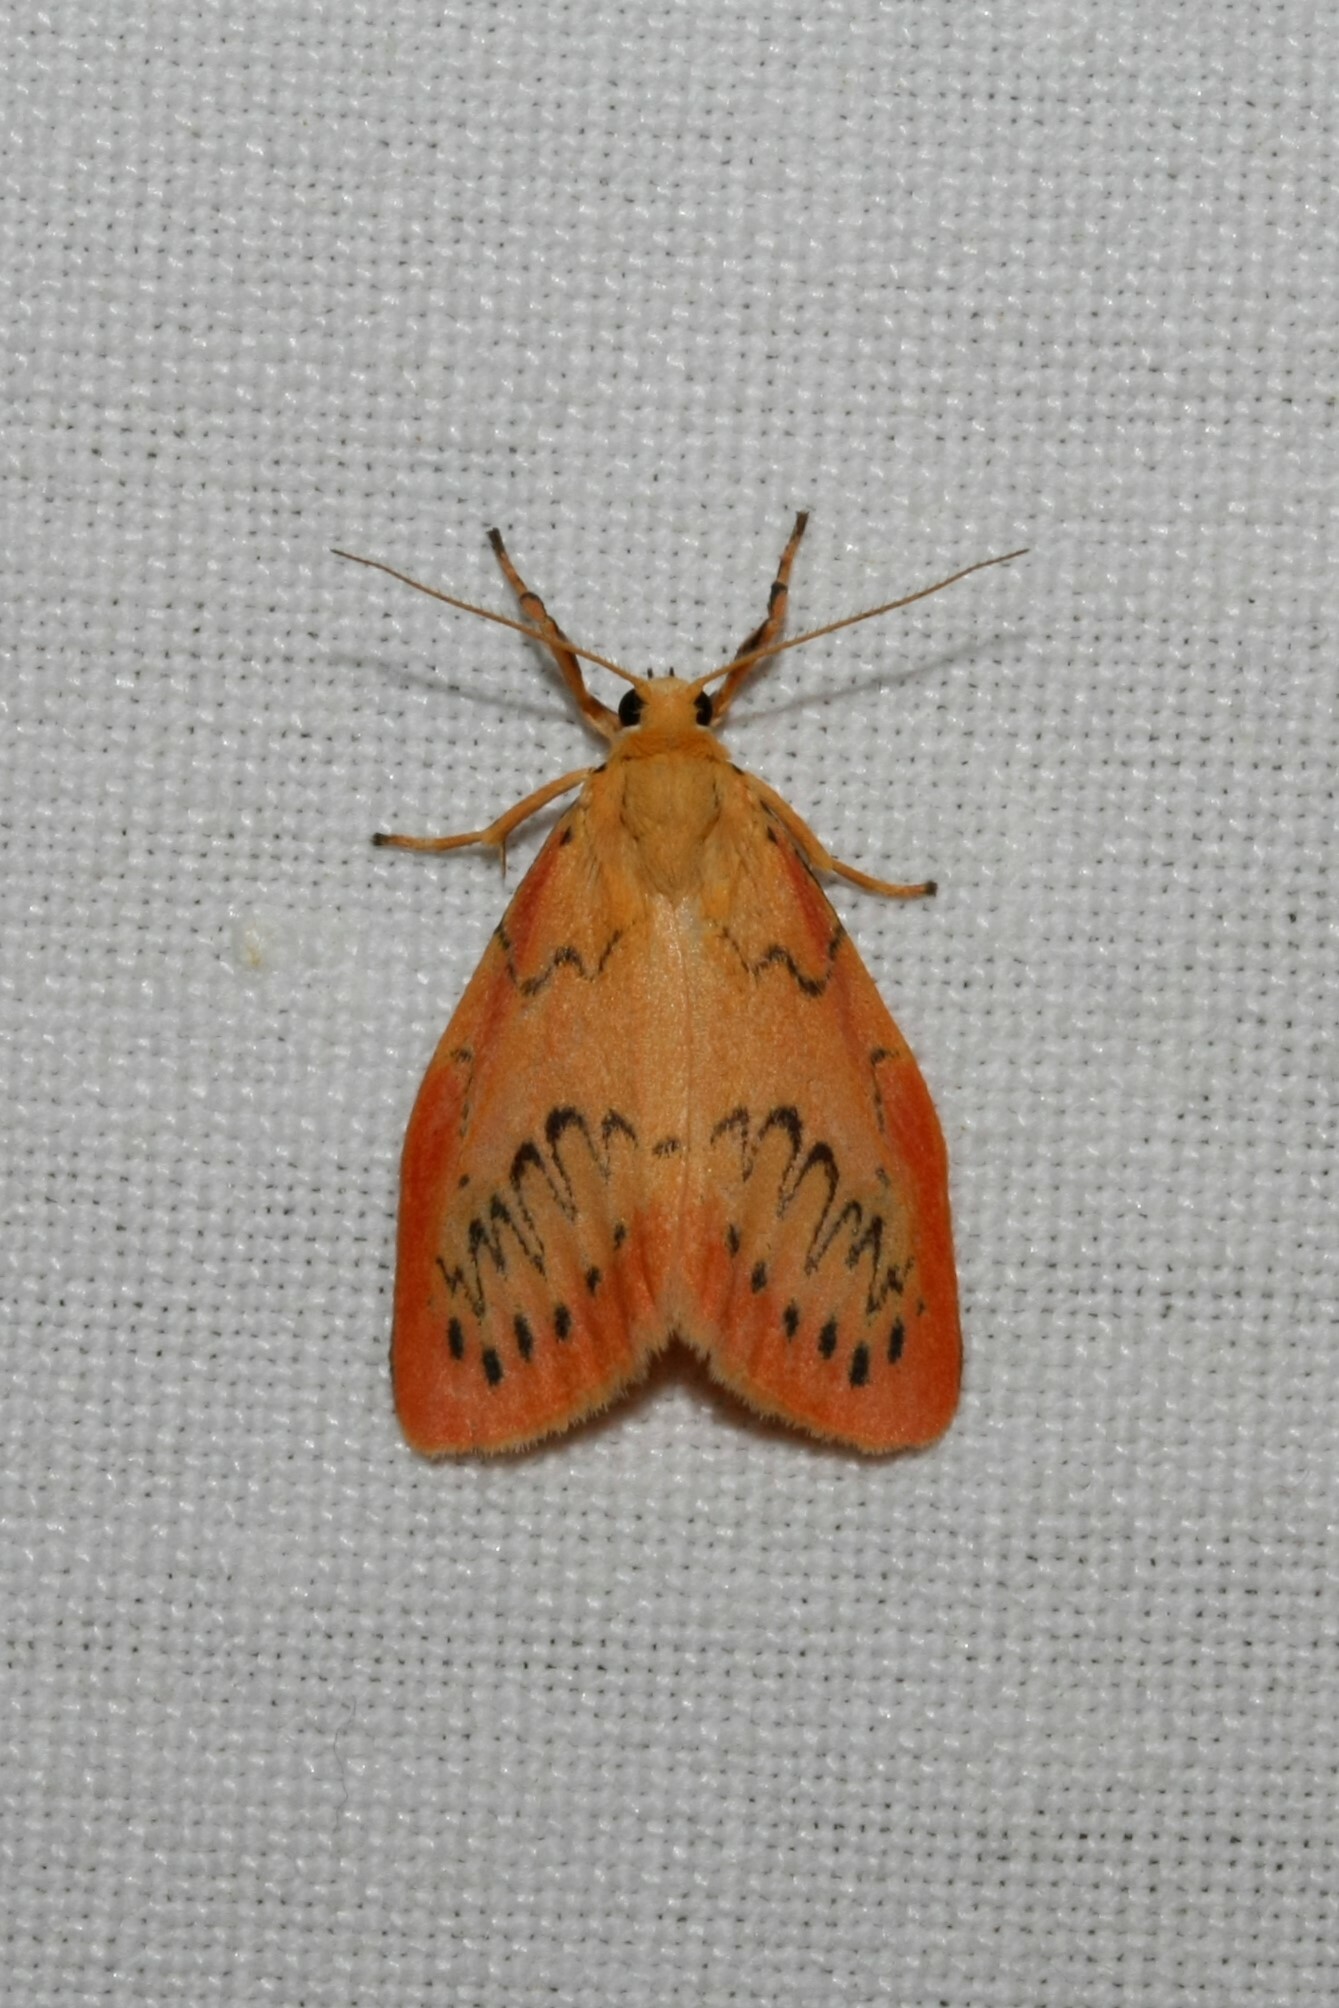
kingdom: Animalia
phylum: Arthropoda
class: Insecta
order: Lepidoptera
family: Erebidae
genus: Miltochrista
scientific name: Miltochrista miniata
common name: Rosy footman
